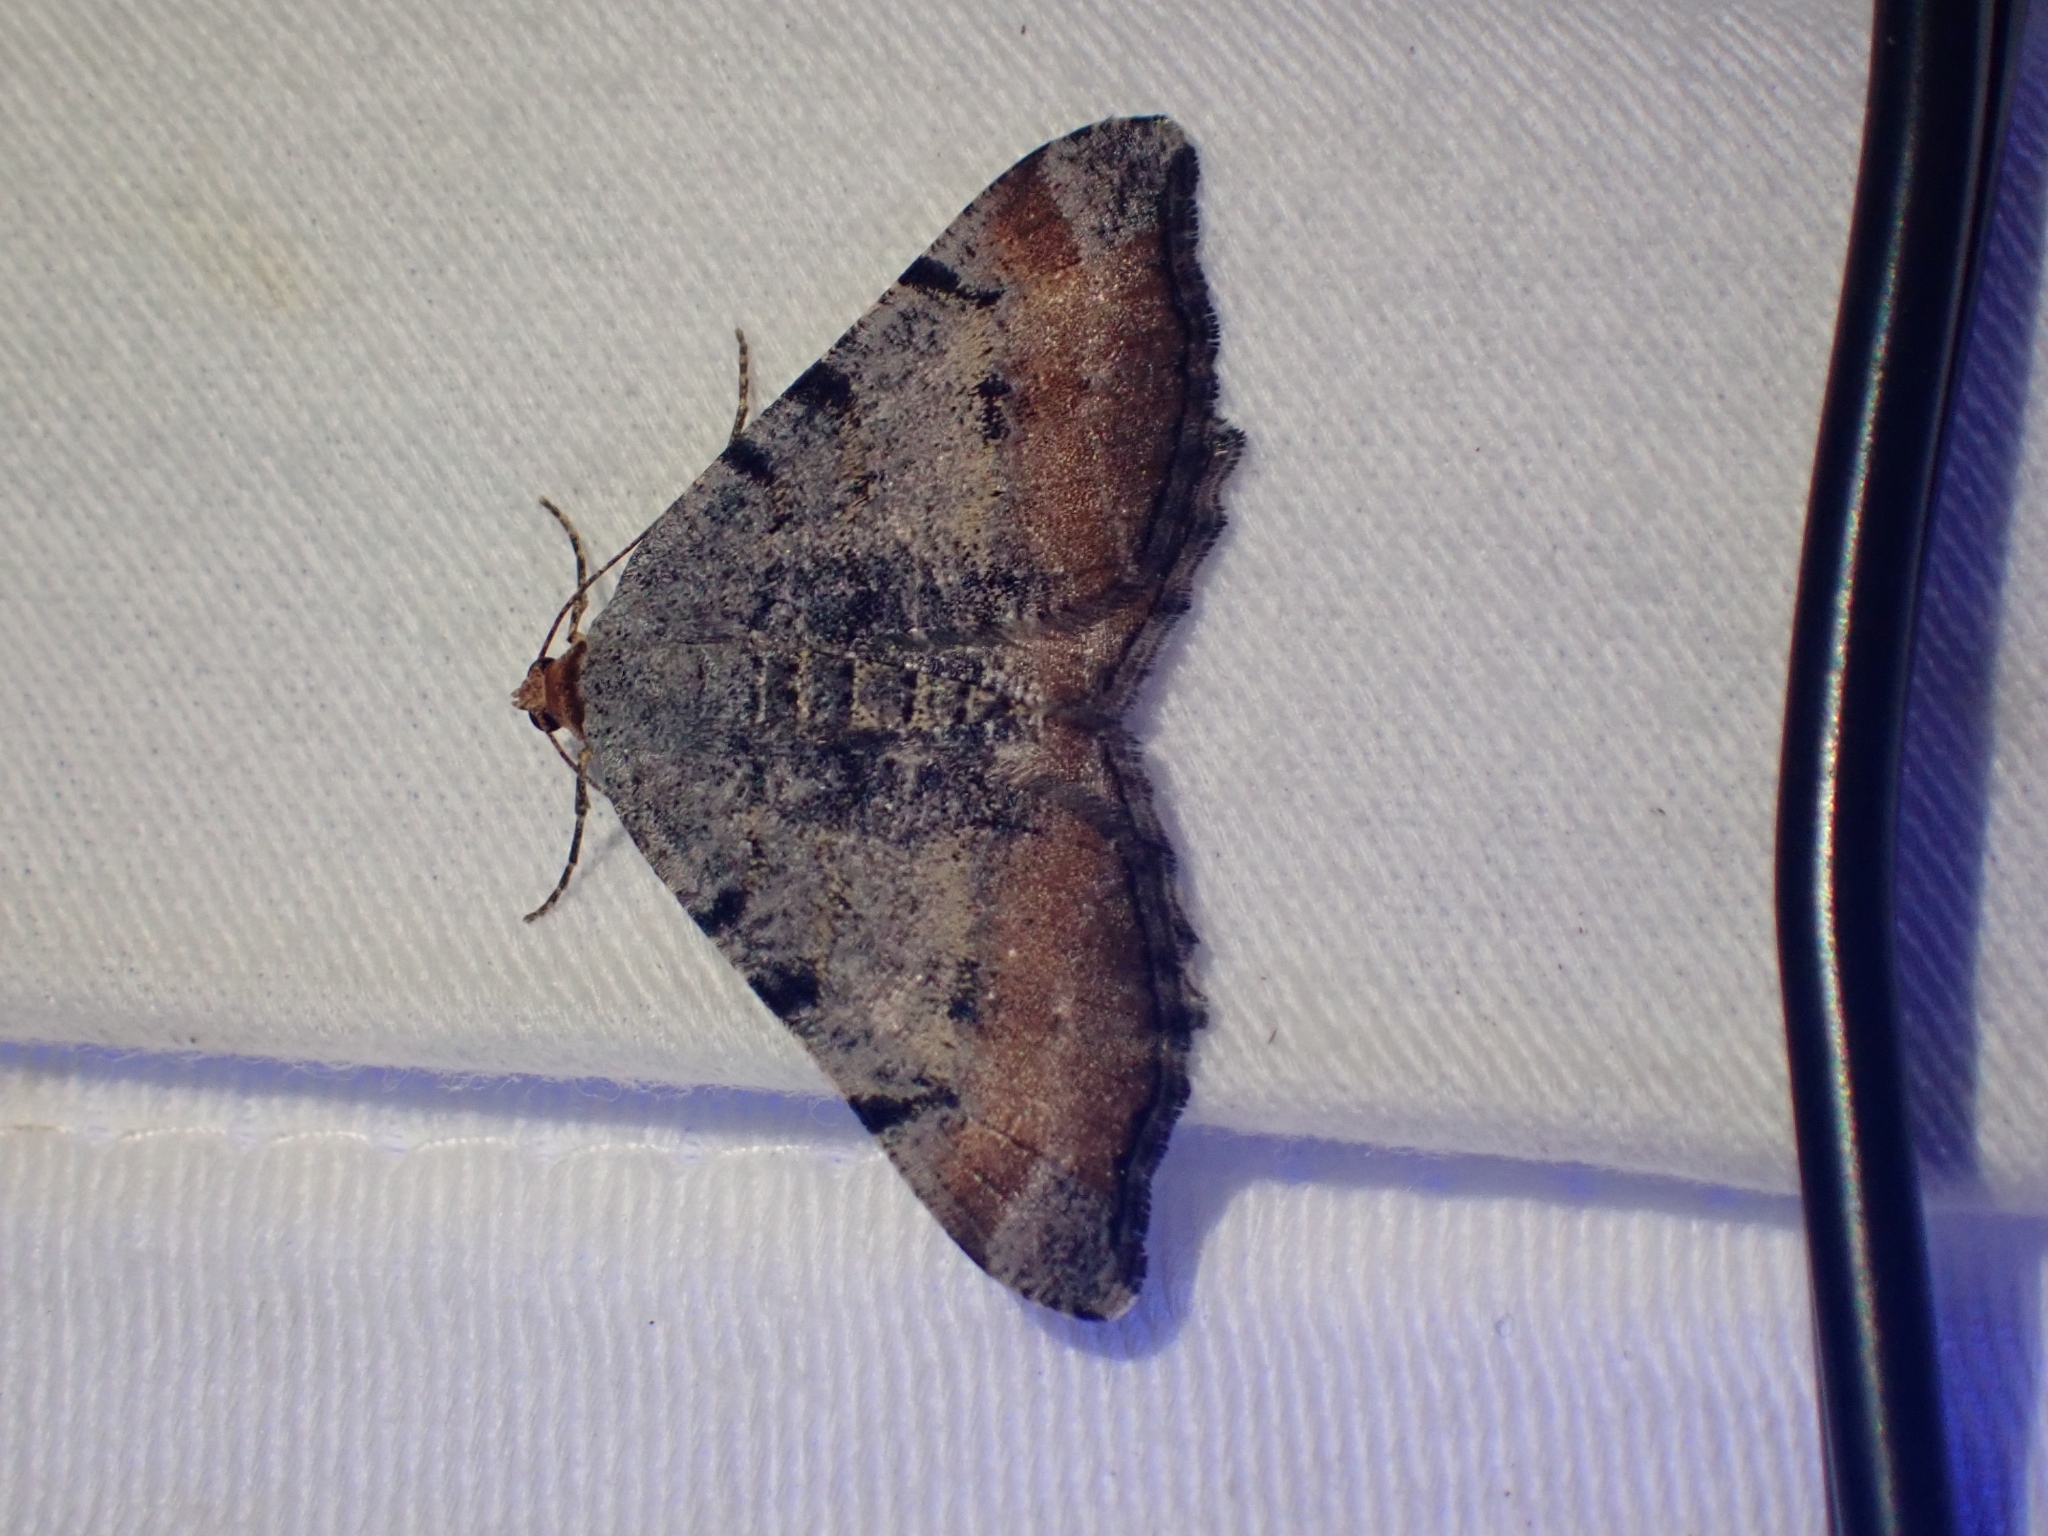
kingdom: Animalia
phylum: Arthropoda
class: Insecta
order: Lepidoptera
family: Geometridae
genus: Macaria
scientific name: Macaria adonis
